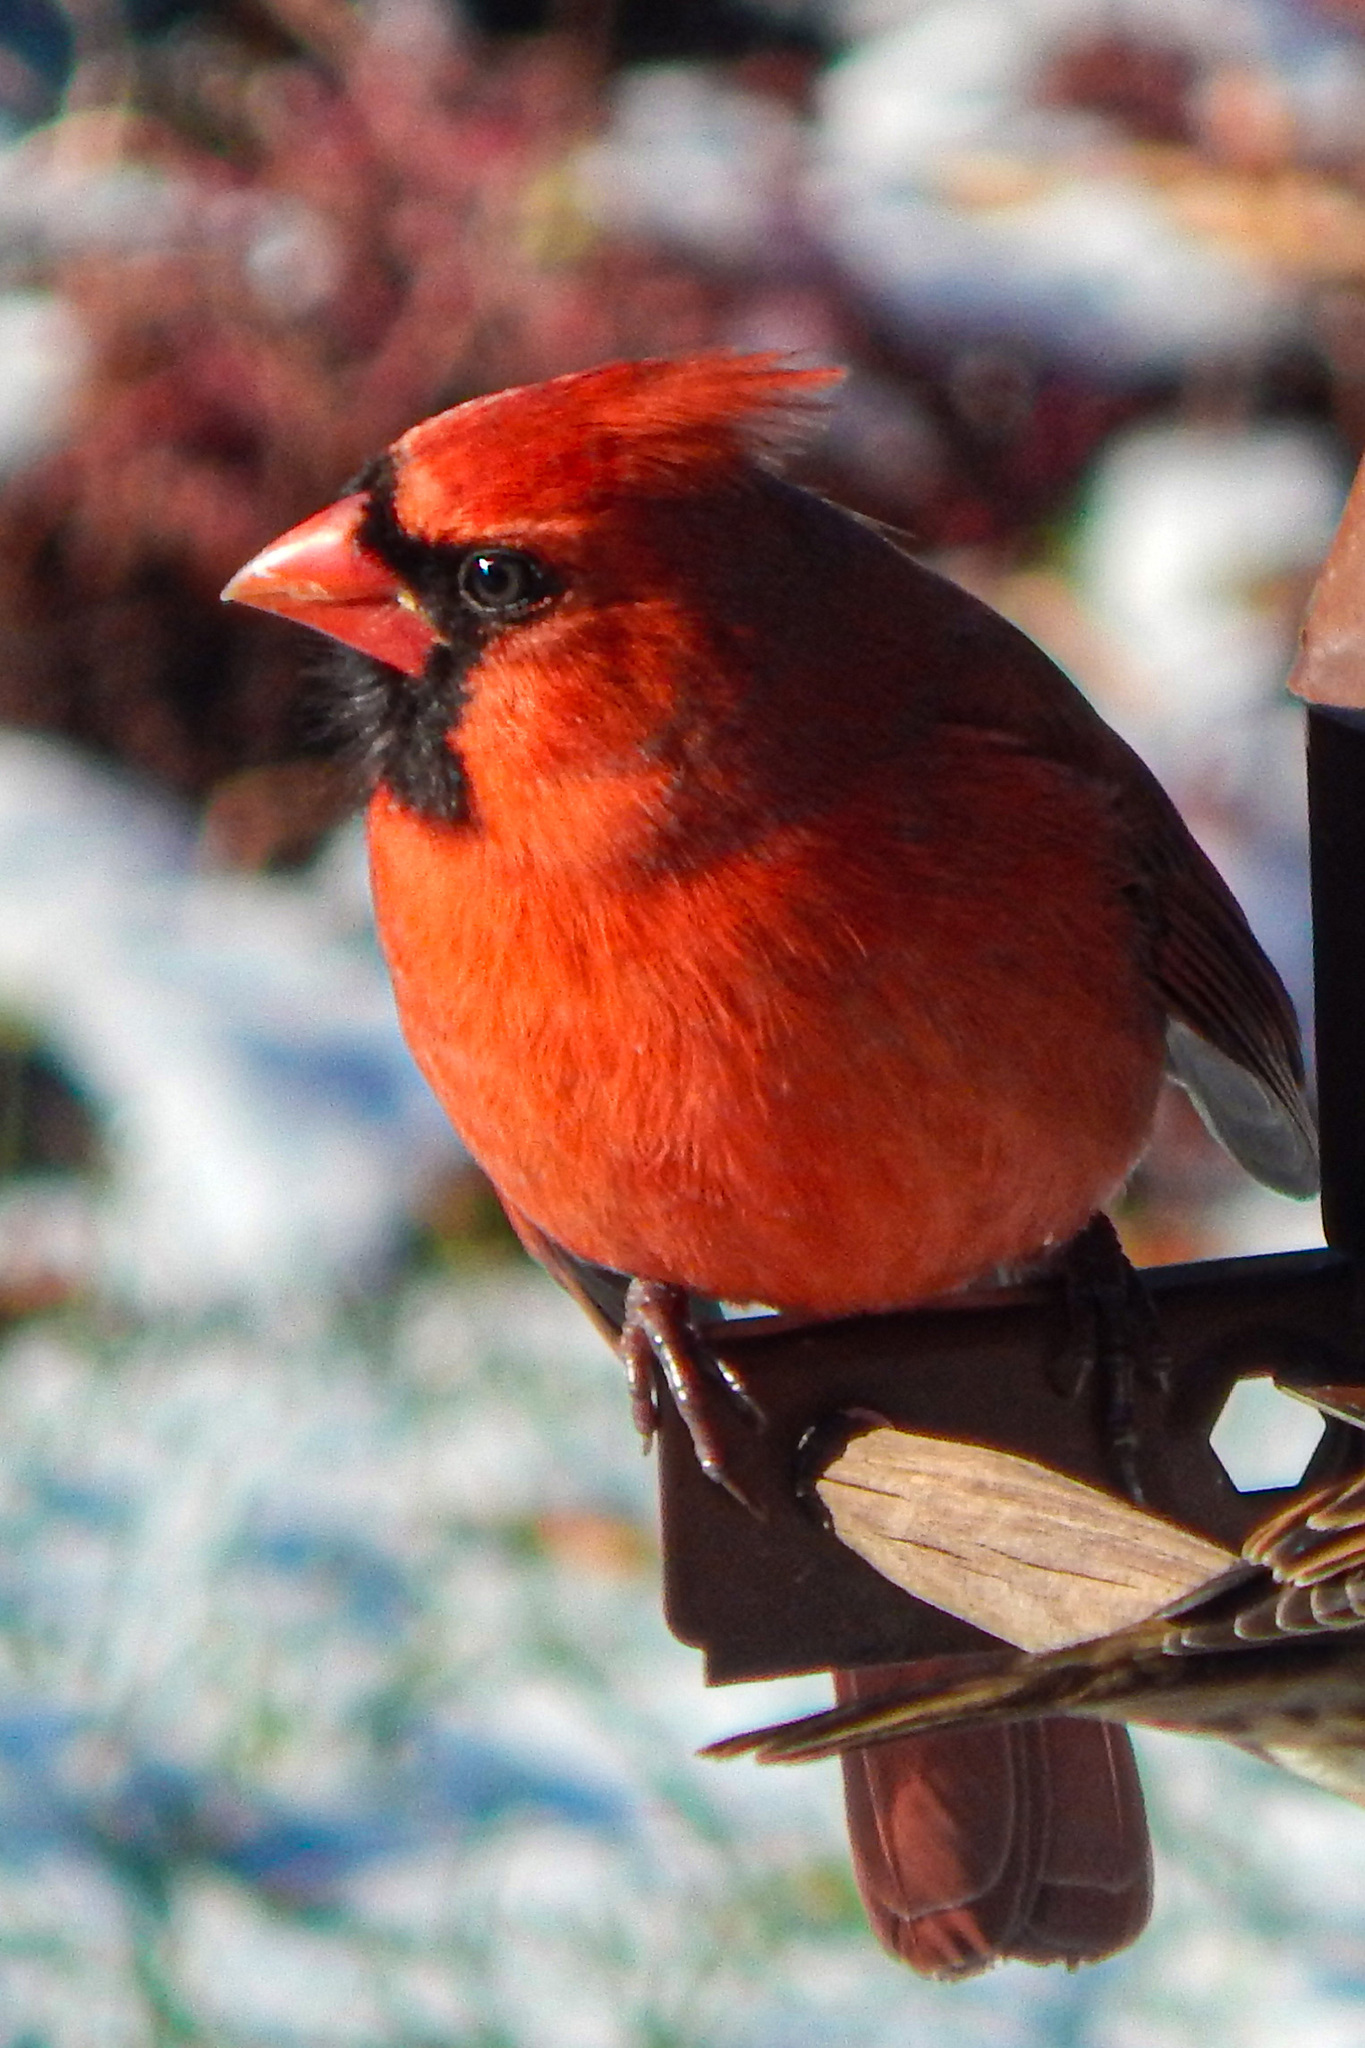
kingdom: Animalia
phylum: Chordata
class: Aves
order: Passeriformes
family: Cardinalidae
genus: Cardinalis
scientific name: Cardinalis cardinalis
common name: Northern cardinal
